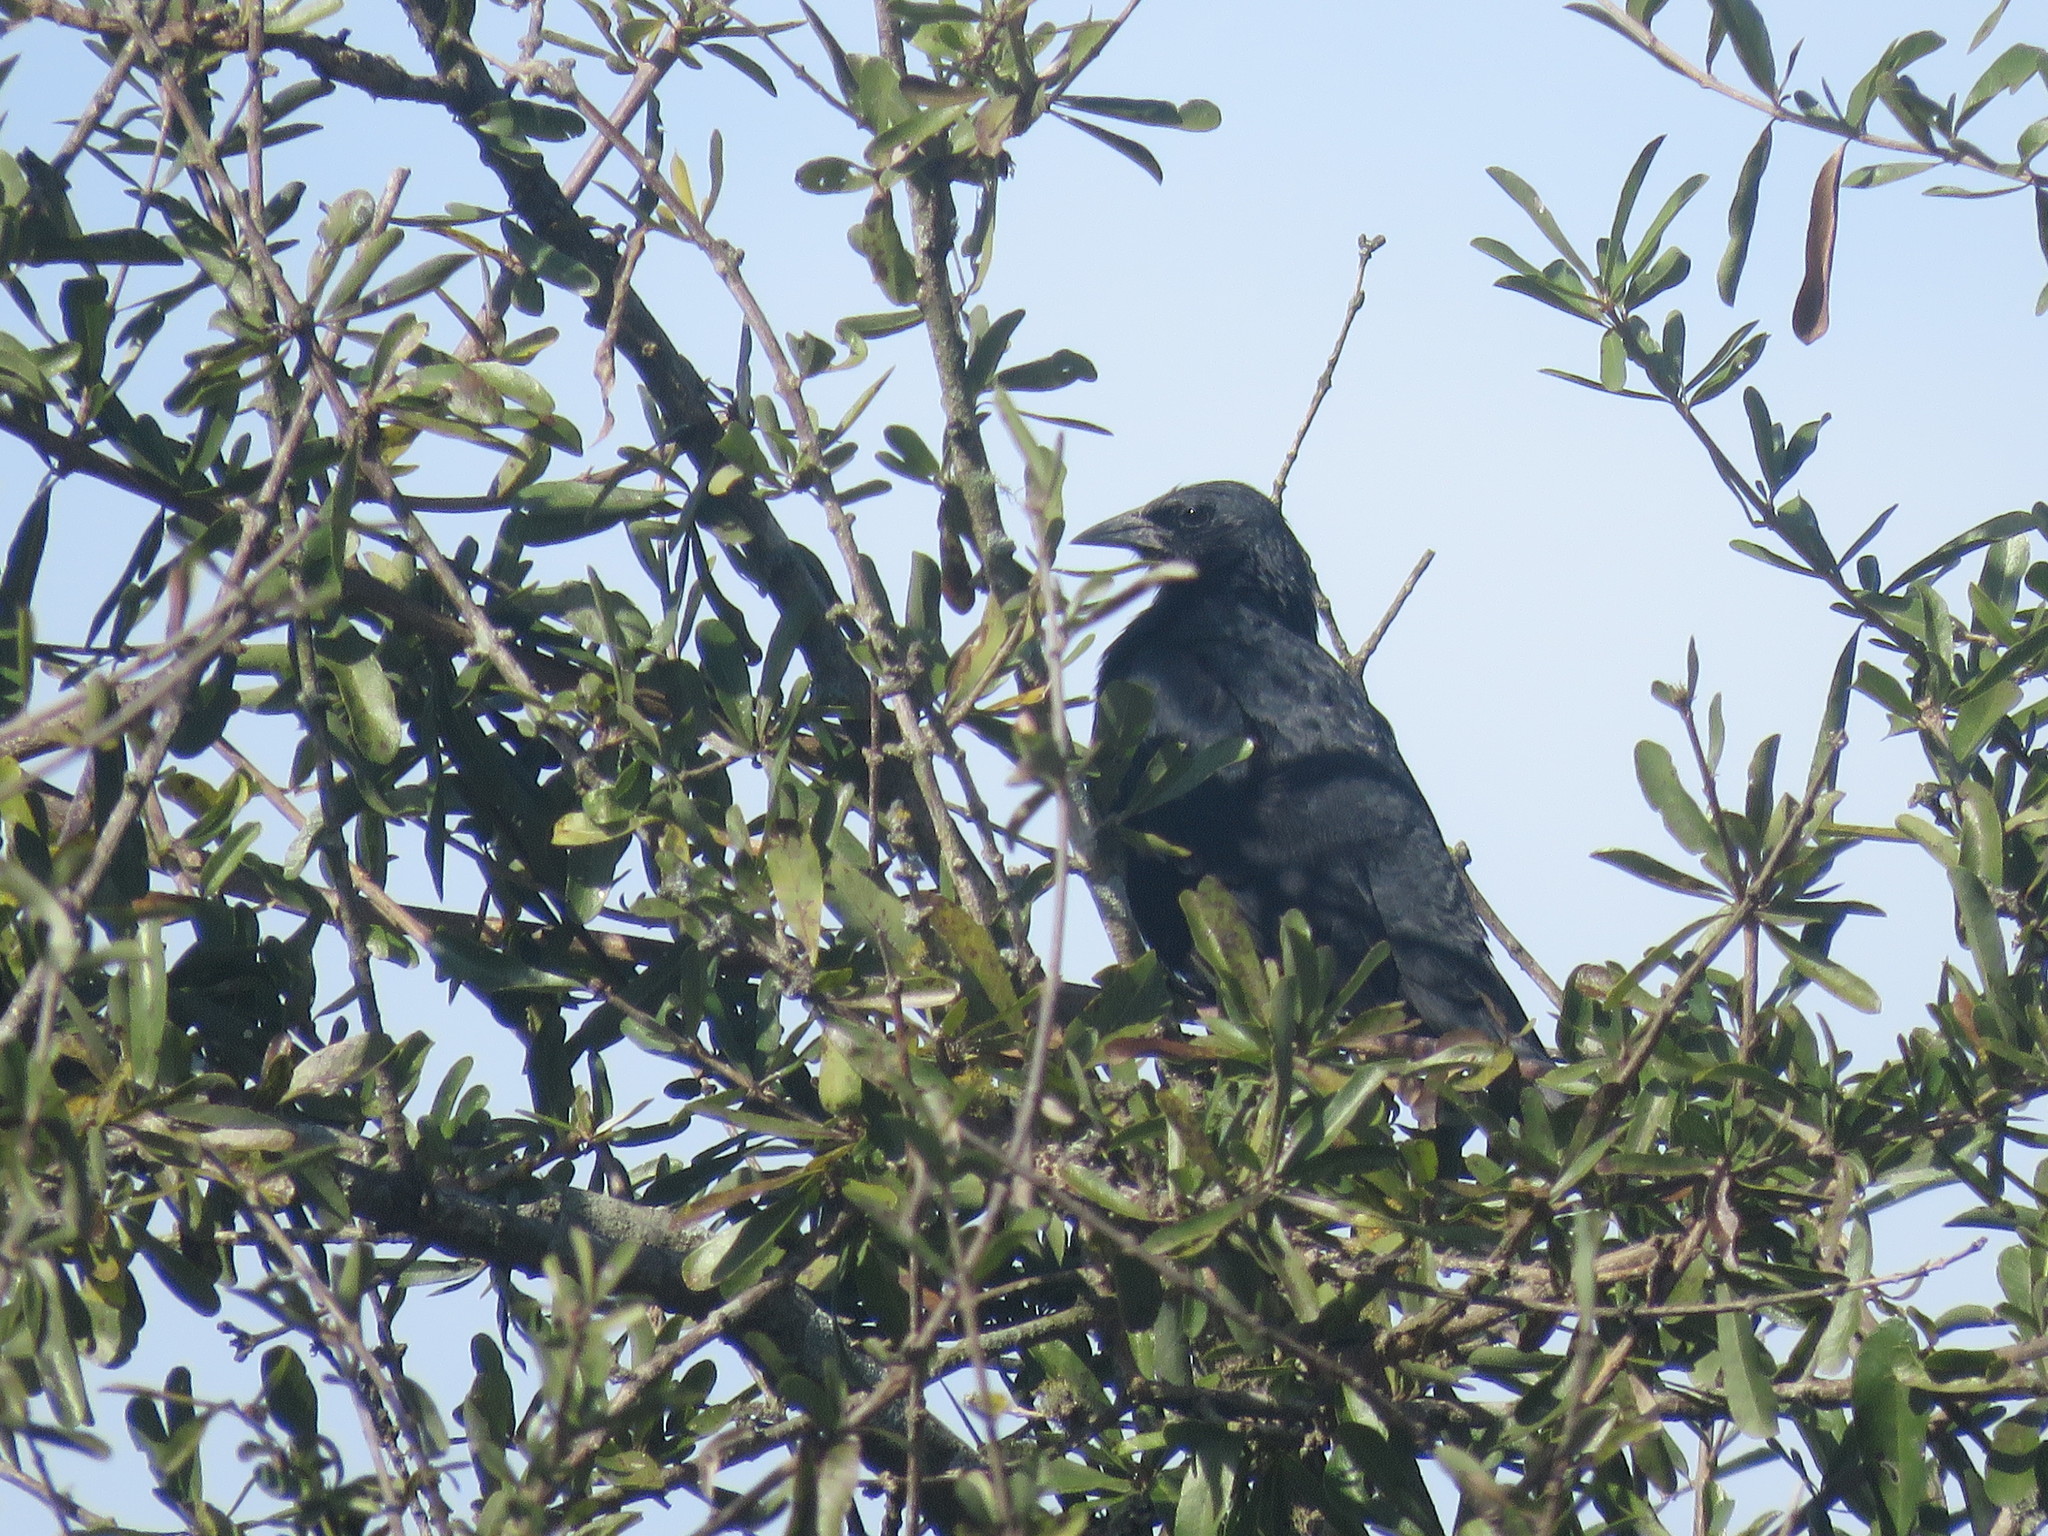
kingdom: Animalia
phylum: Chordata
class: Aves
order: Passeriformes
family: Icteridae
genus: Gnorimopsar
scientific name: Gnorimopsar chopi
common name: Chopi blackbird
